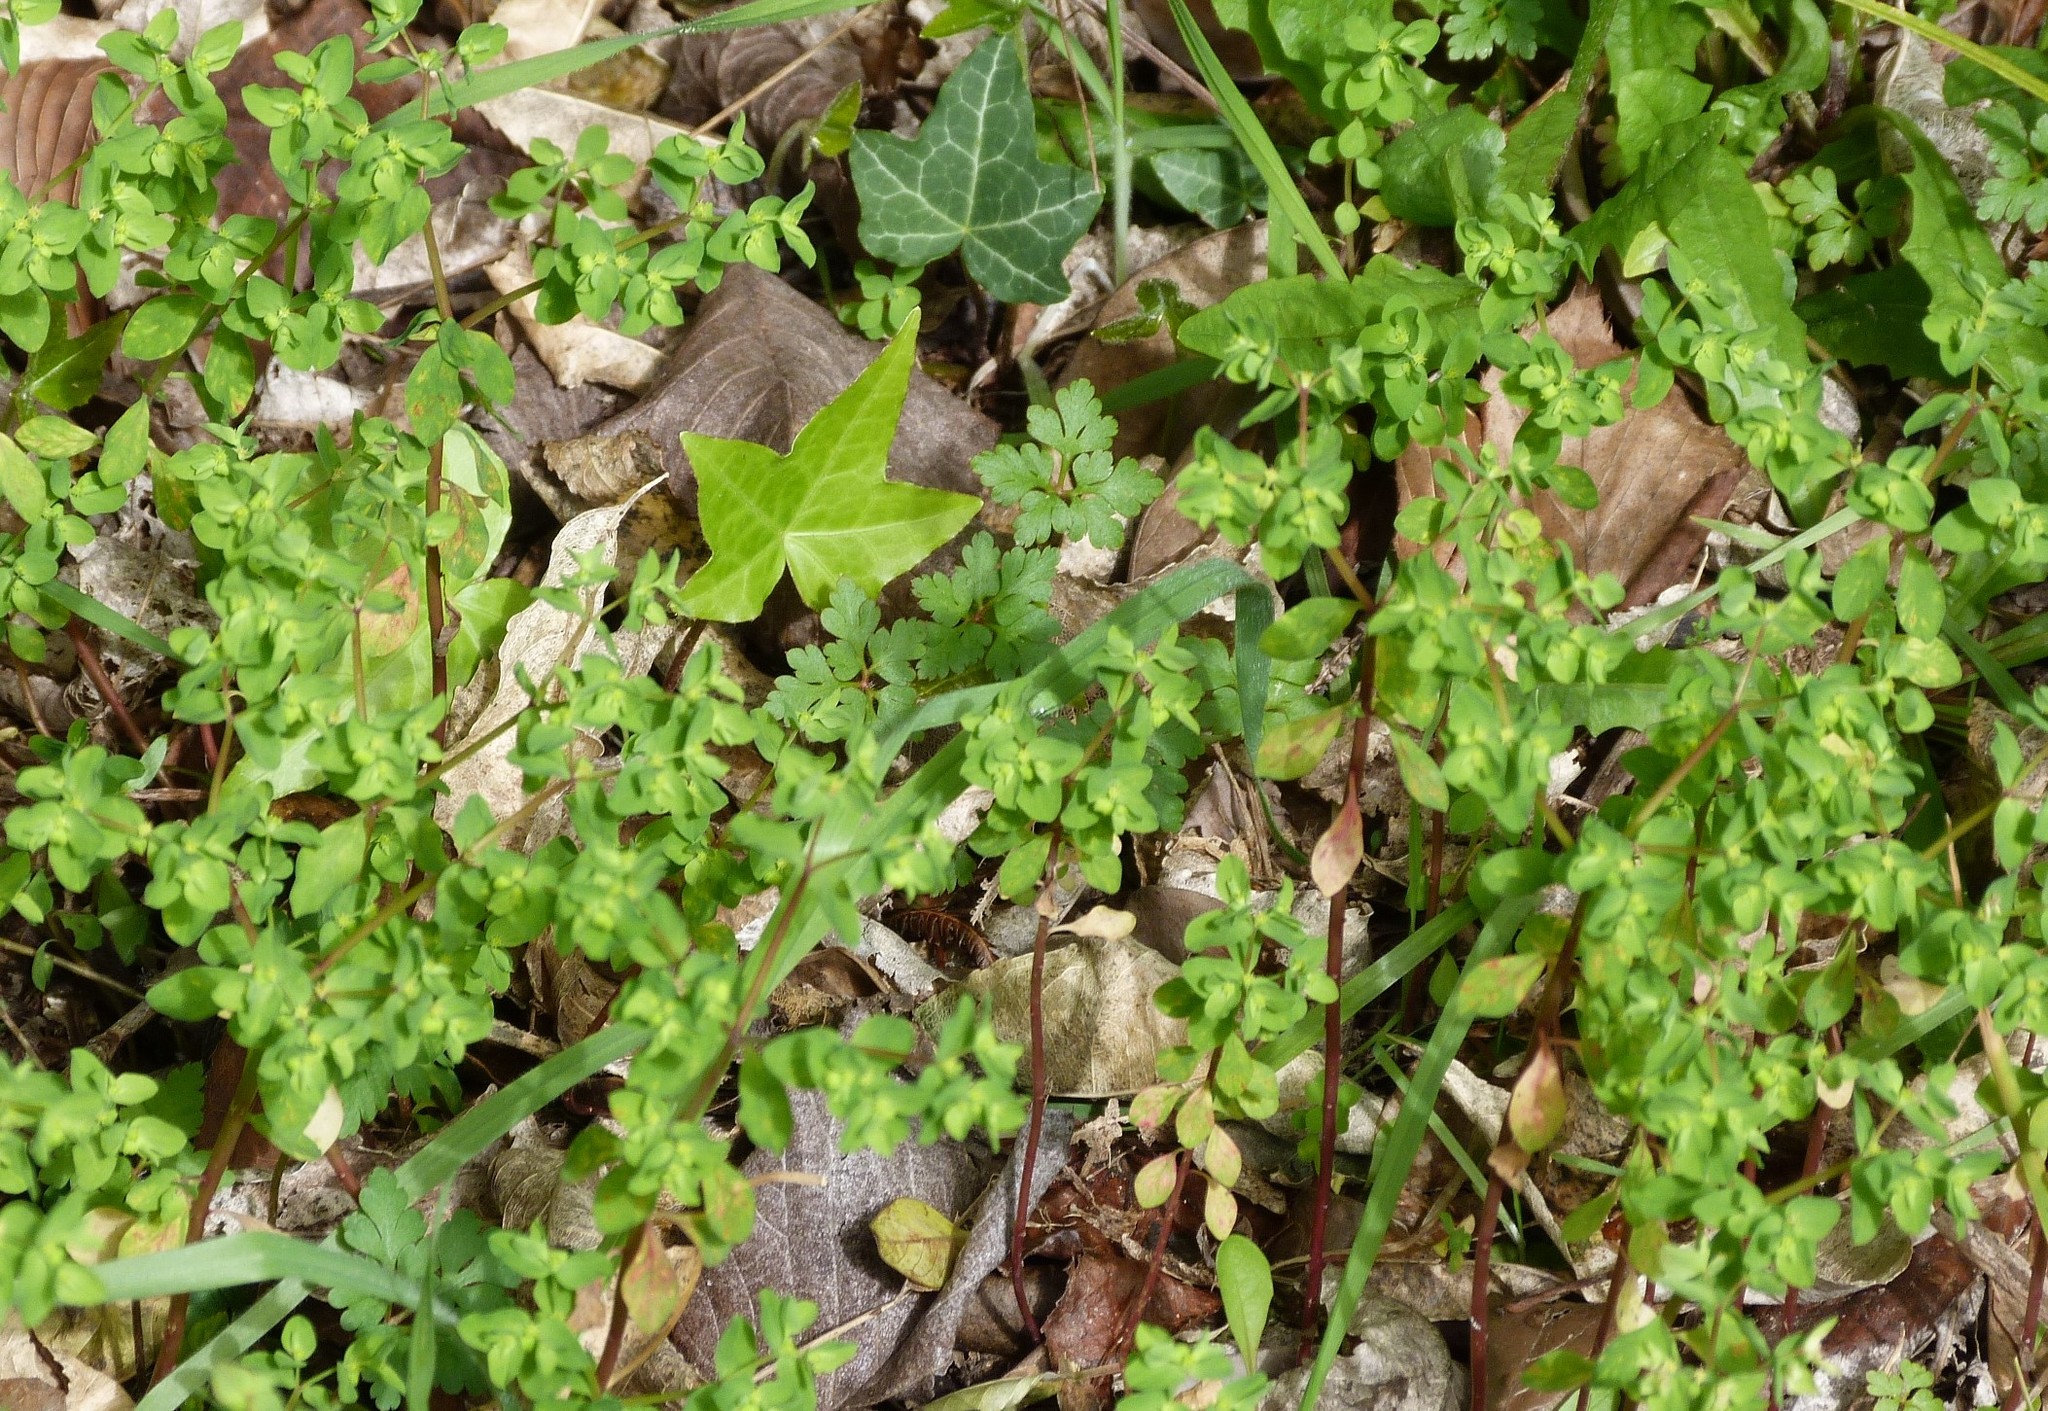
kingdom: Plantae
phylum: Tracheophyta
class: Magnoliopsida
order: Malpighiales
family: Euphorbiaceae
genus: Euphorbia
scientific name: Euphorbia peplus
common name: Petty spurge
